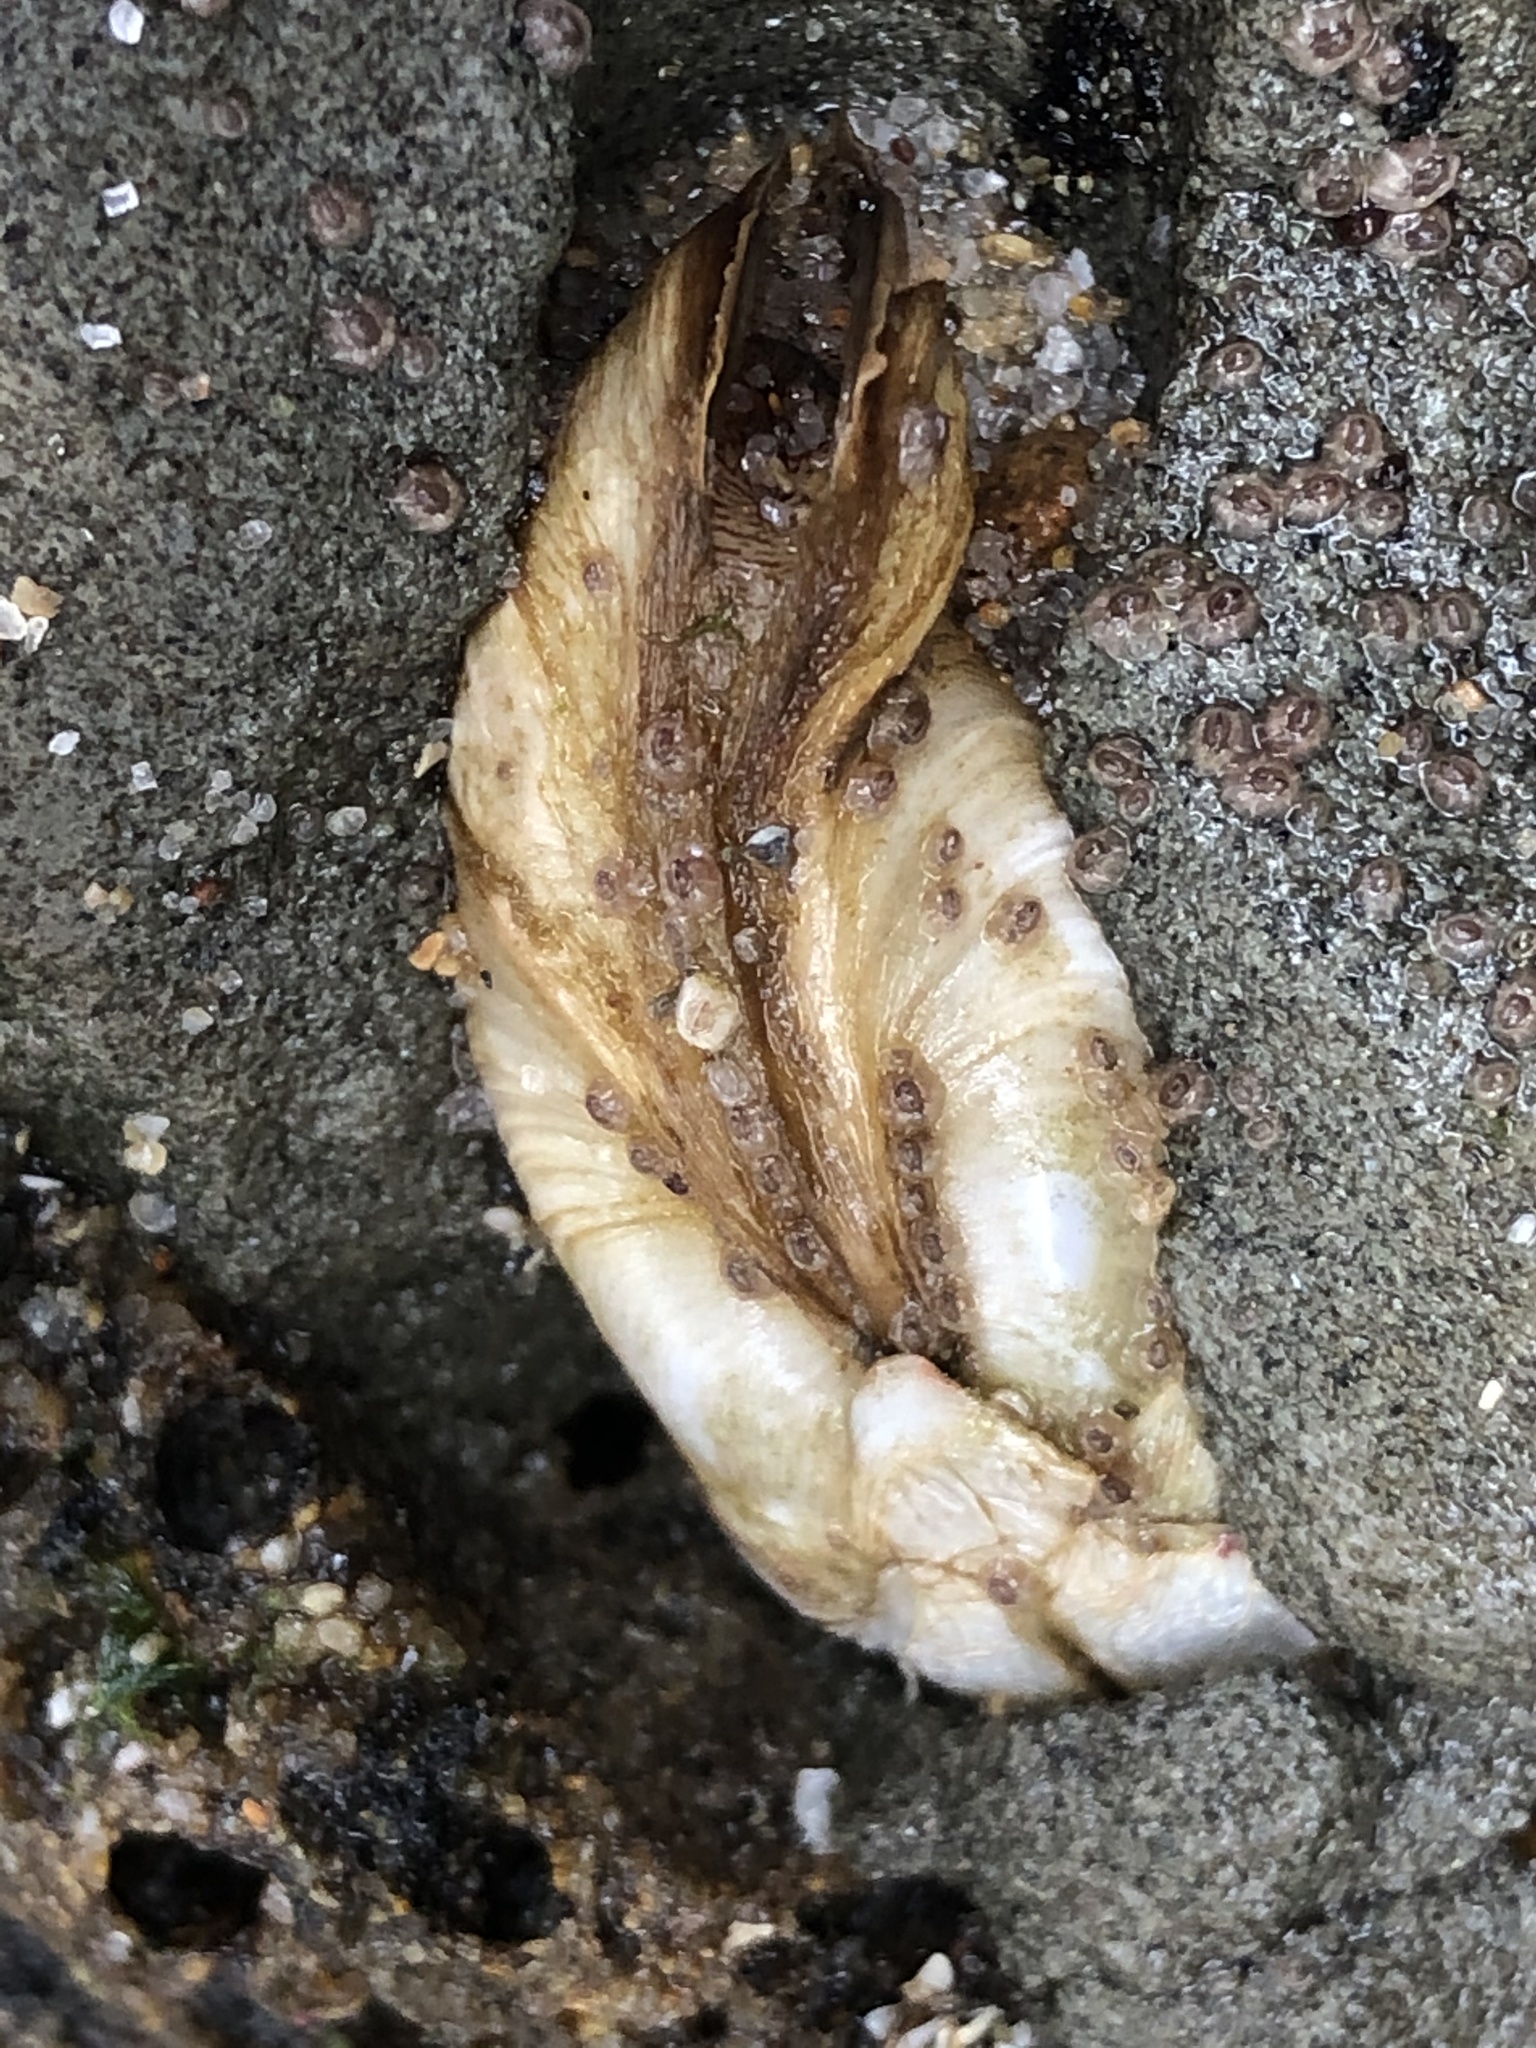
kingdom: Animalia
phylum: Mollusca
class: Bivalvia
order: Myida
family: Pholadidae
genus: Penitella
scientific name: Penitella penita
